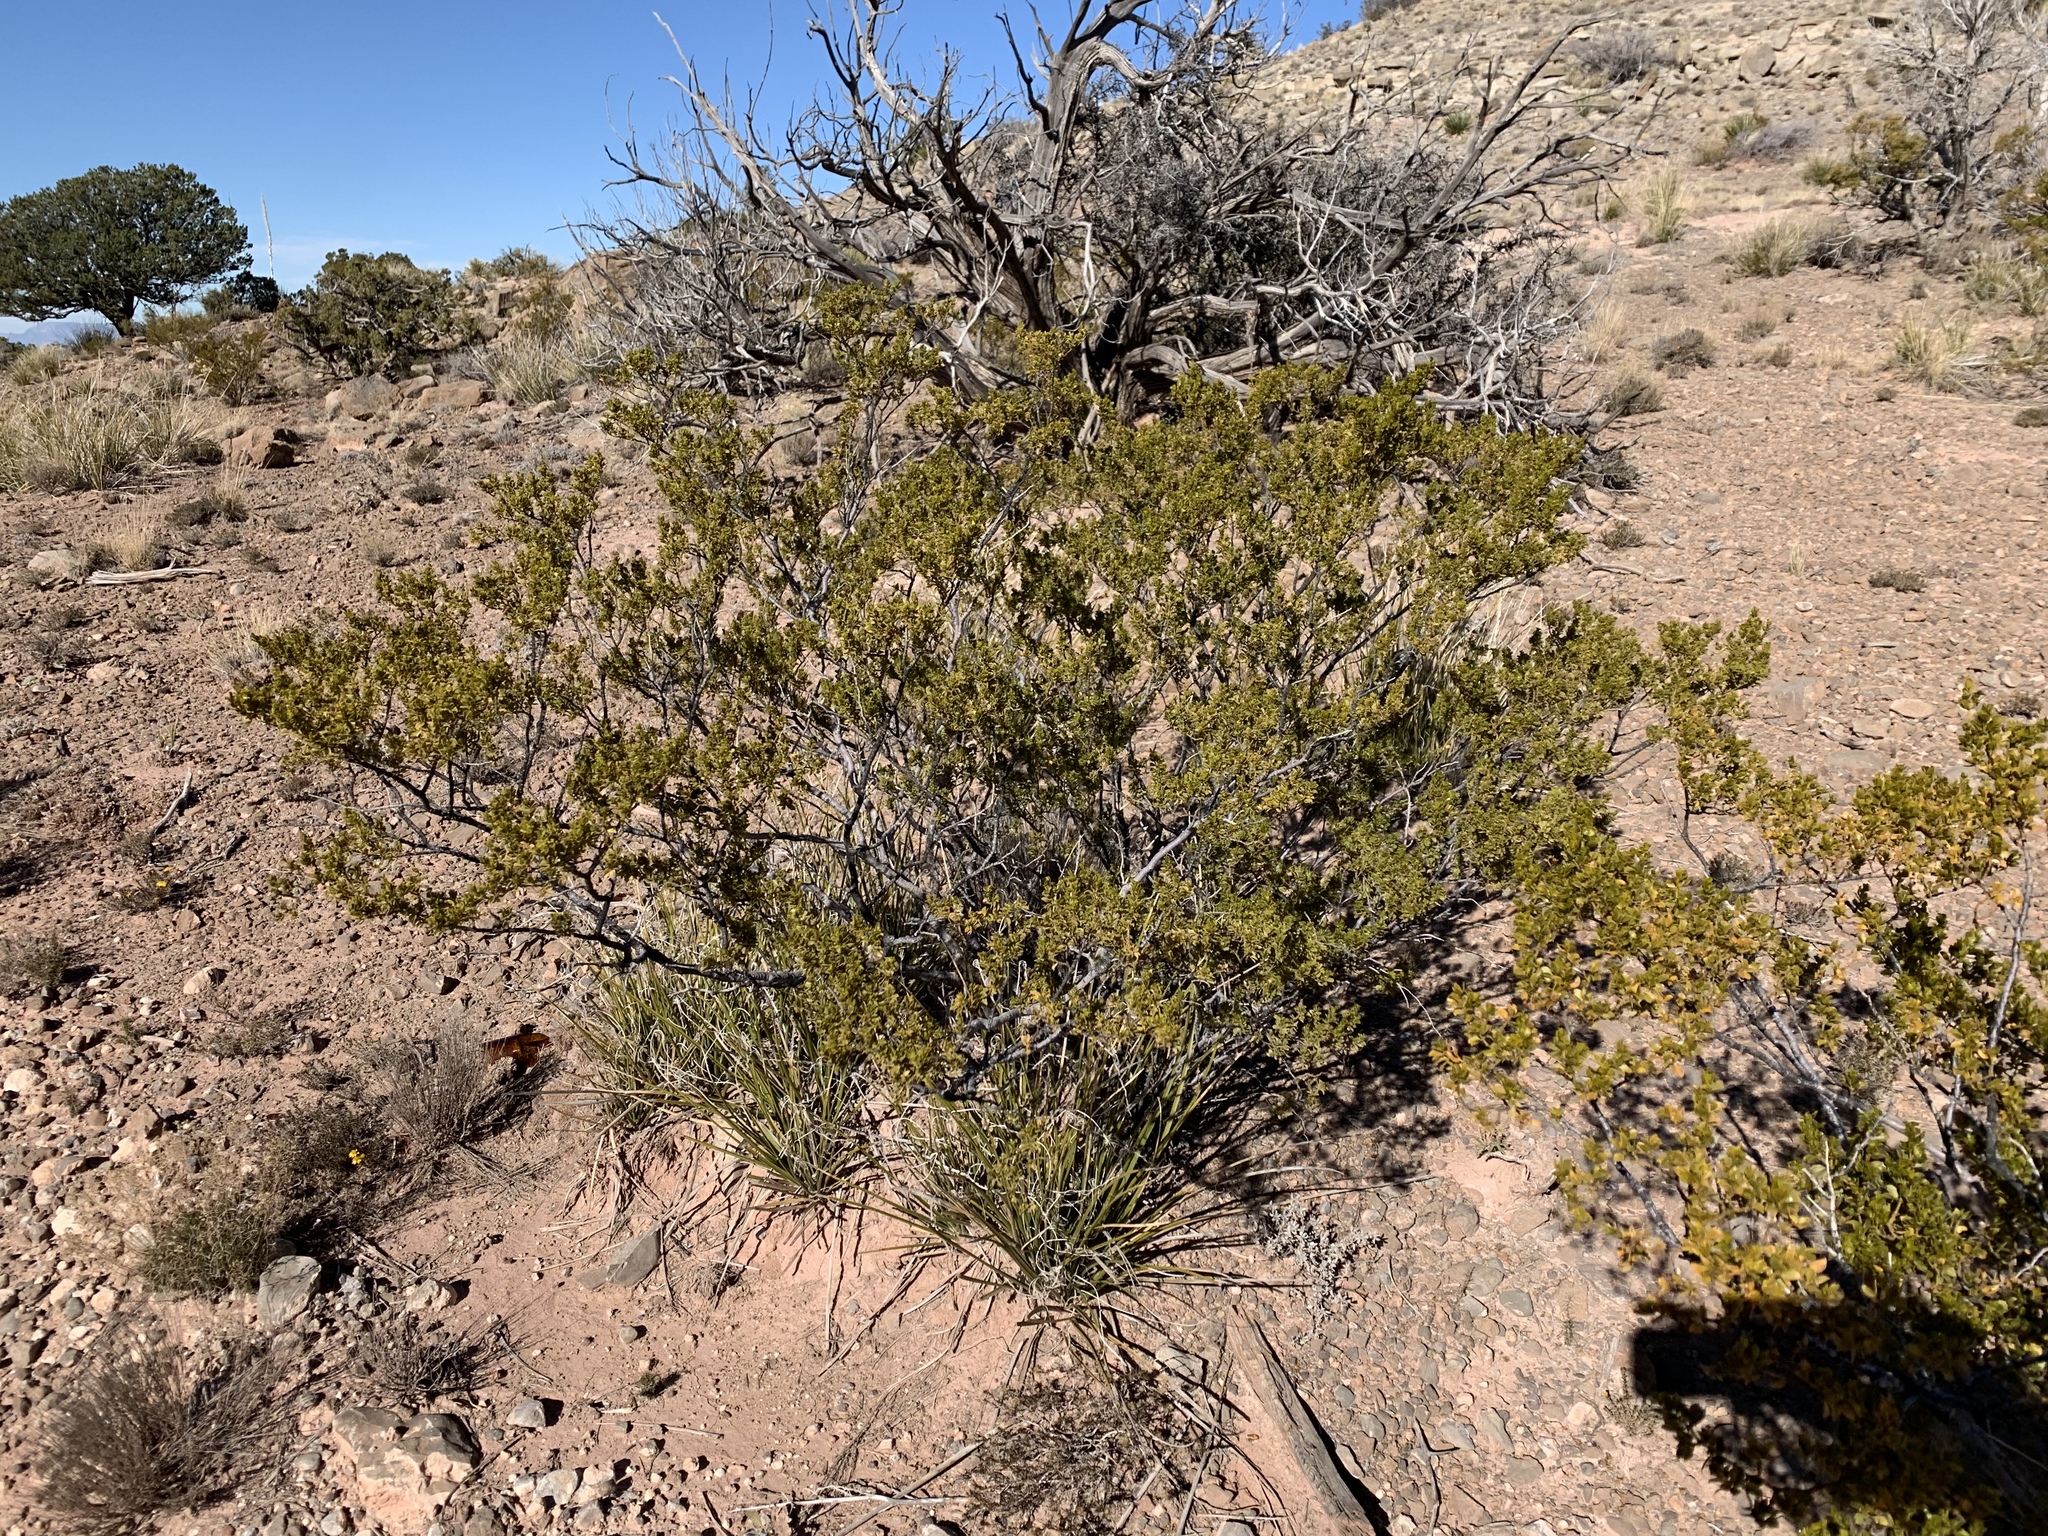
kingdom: Plantae
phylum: Tracheophyta
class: Magnoliopsida
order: Zygophyllales
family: Zygophyllaceae
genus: Larrea
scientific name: Larrea tridentata
